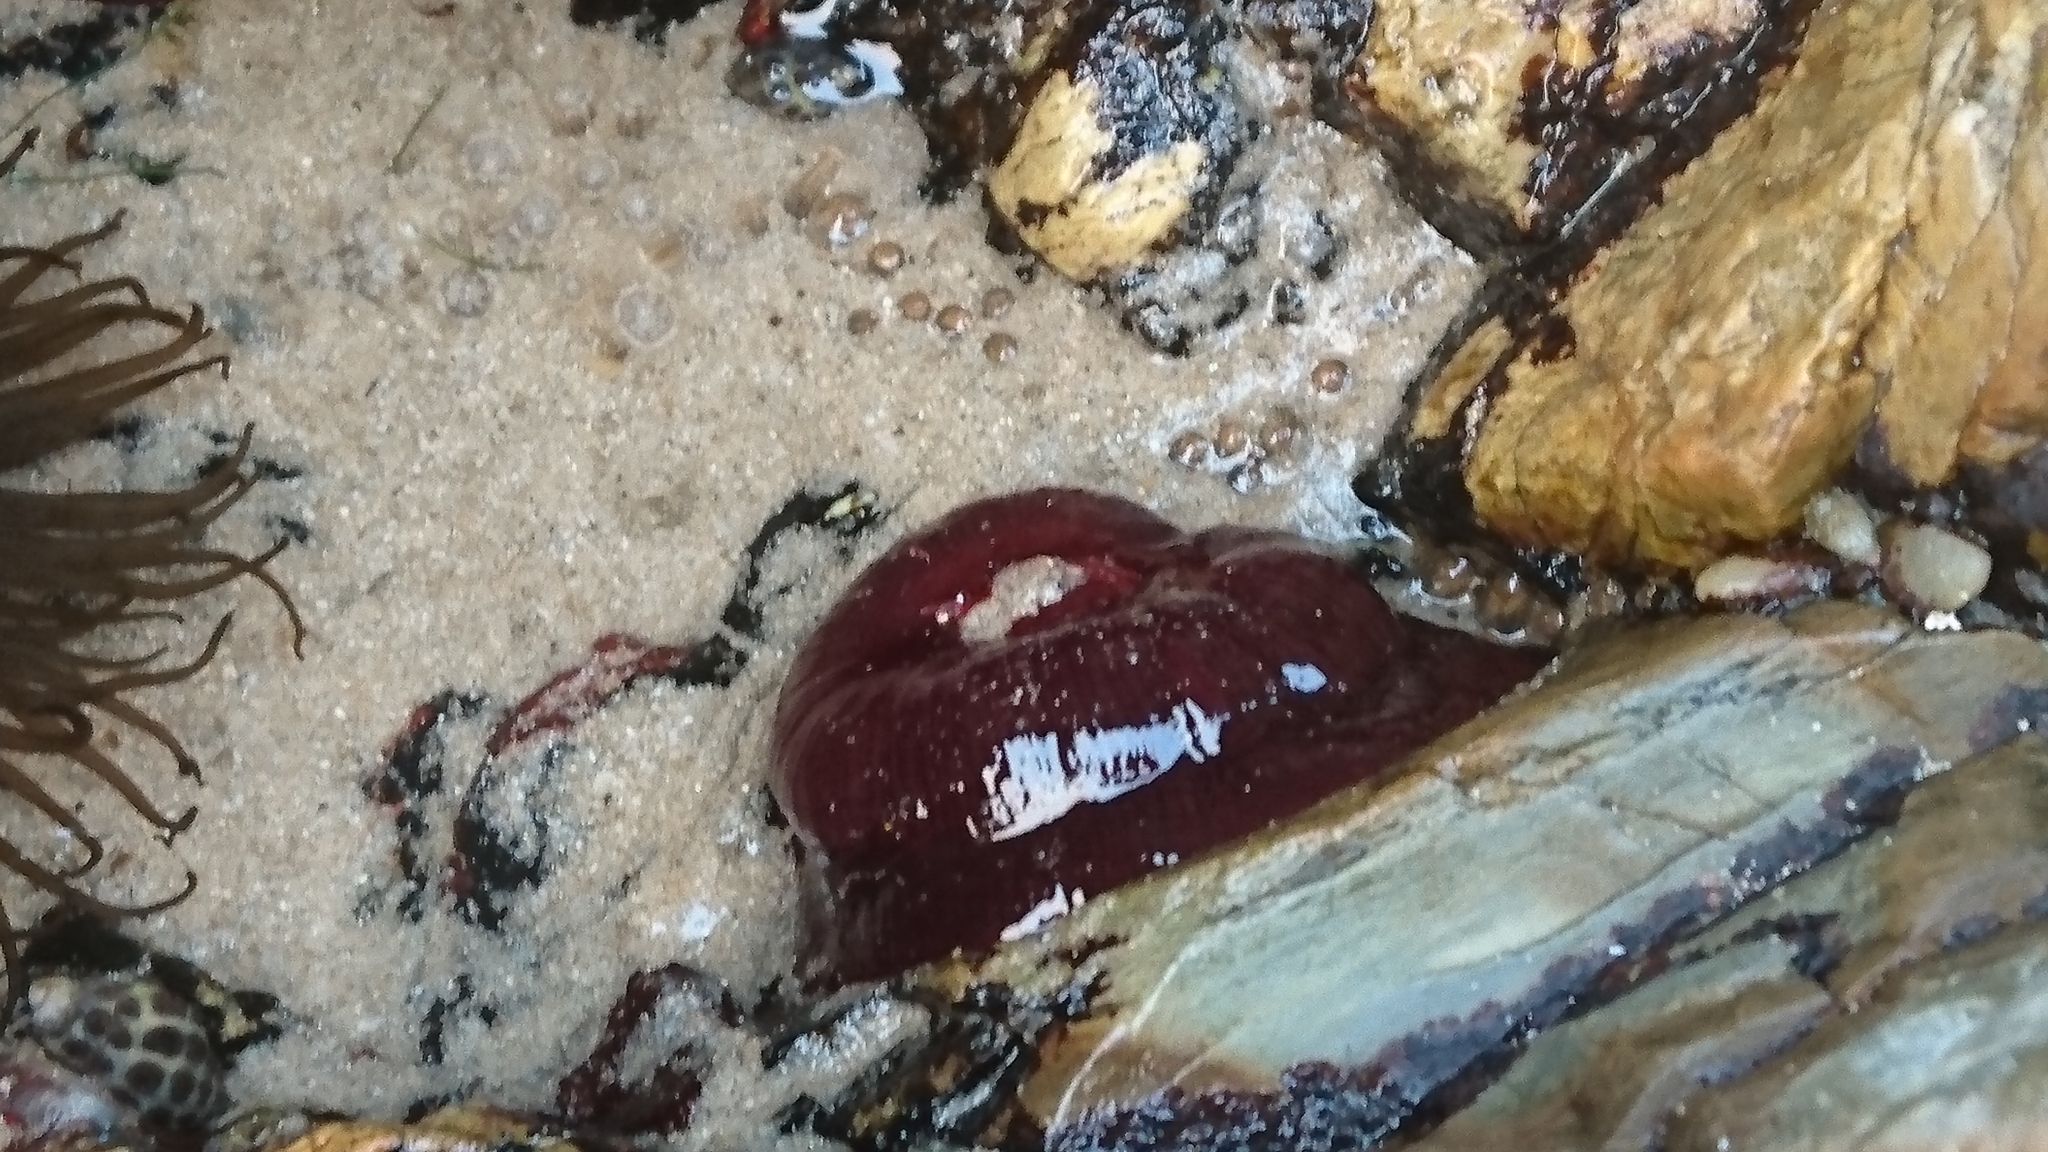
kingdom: Animalia
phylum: Cnidaria
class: Anthozoa
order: Actiniaria
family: Actiniidae
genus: Actinia
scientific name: Actinia tenebrosa
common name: Waratah anemone
